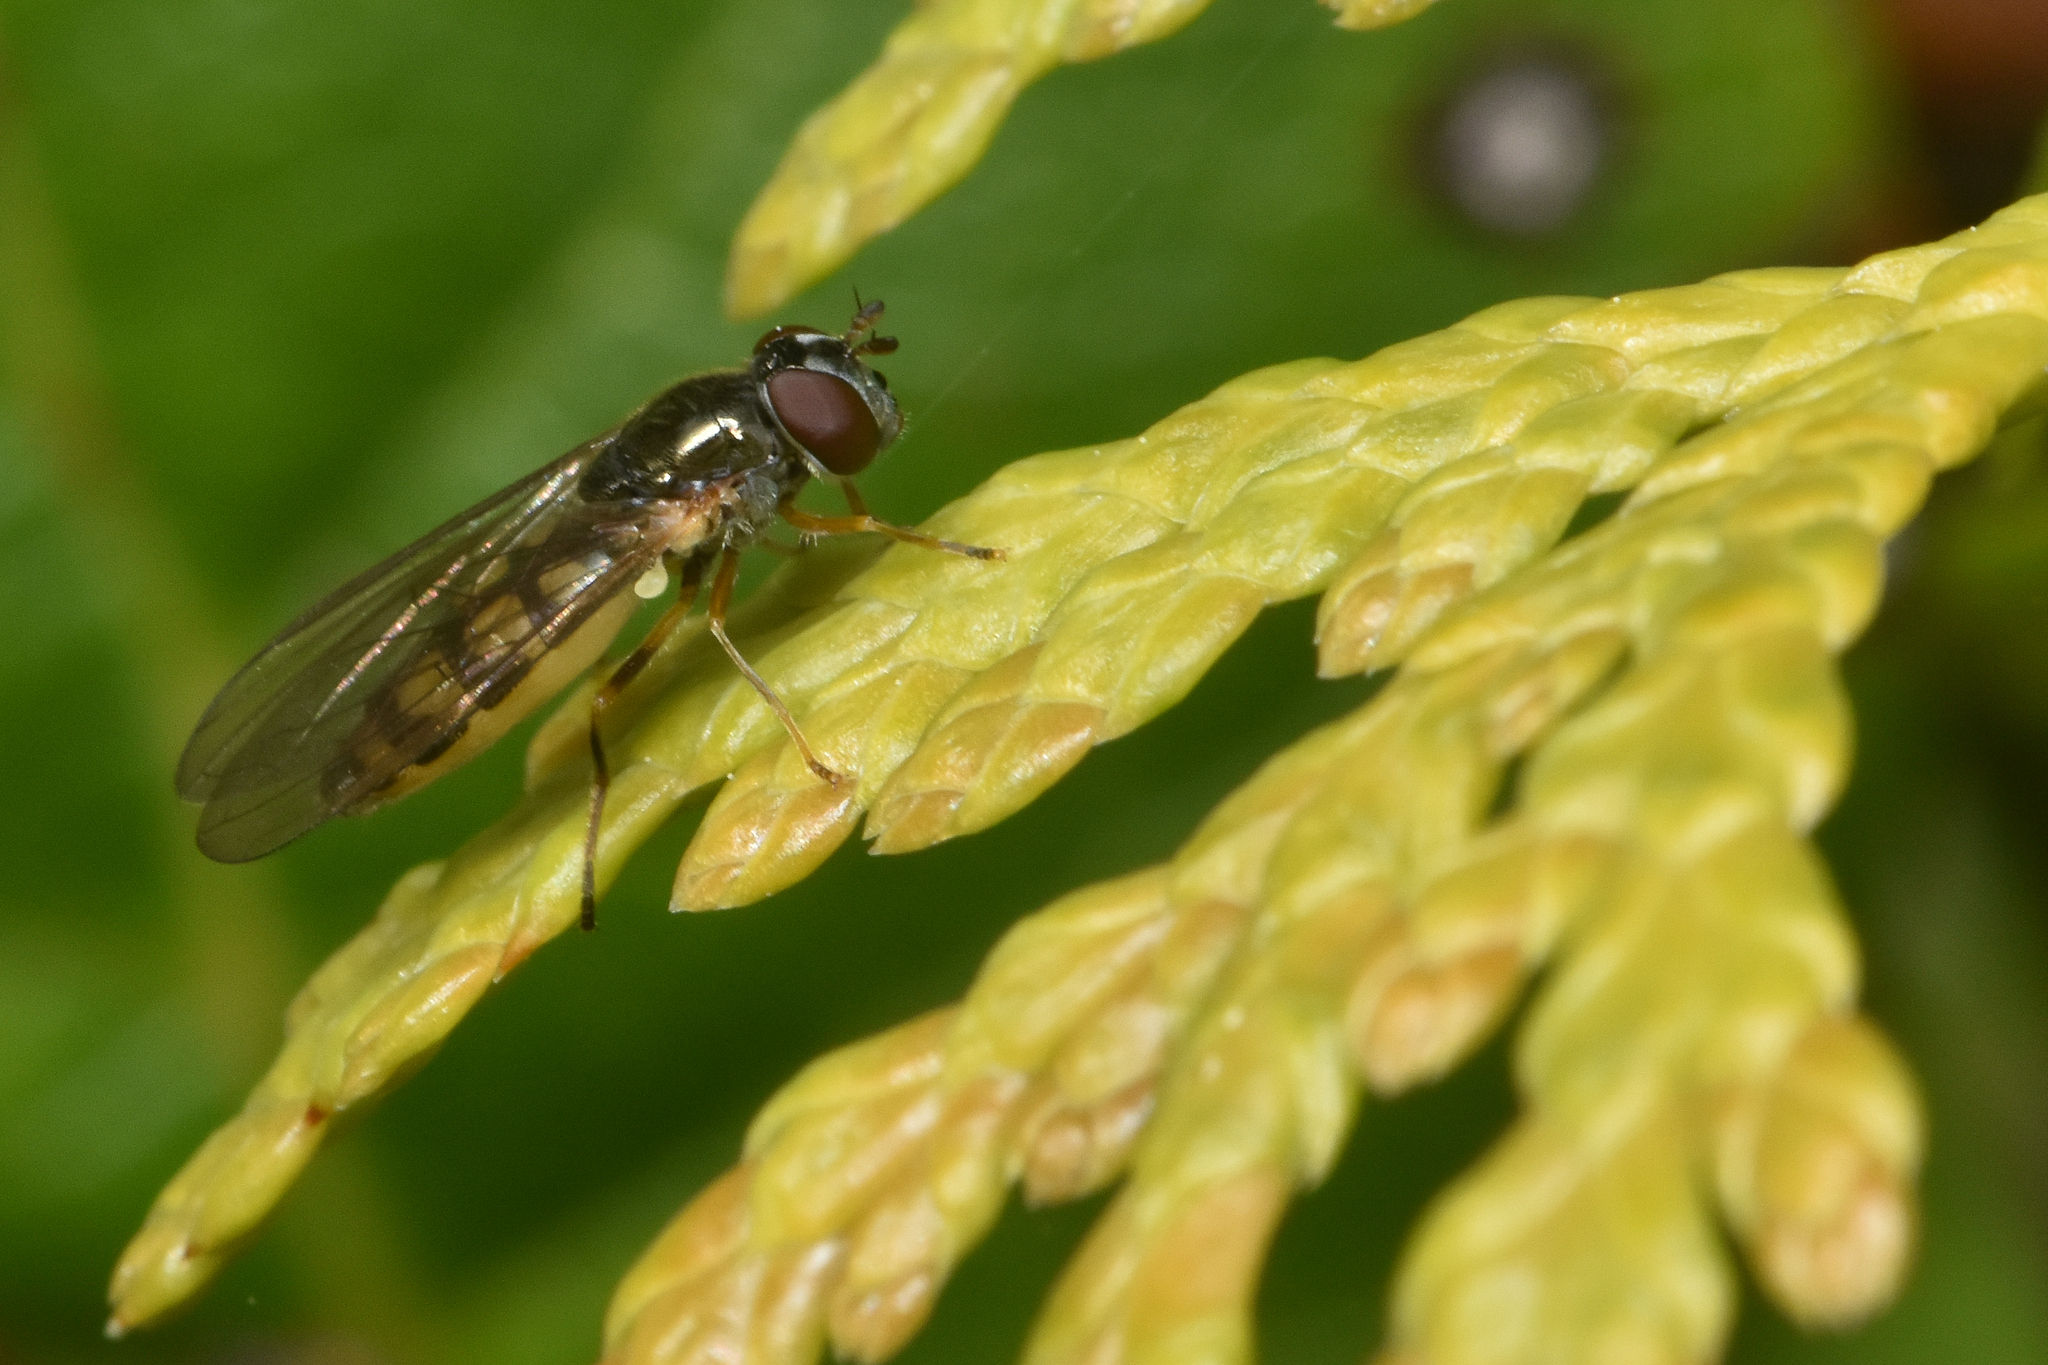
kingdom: Animalia
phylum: Arthropoda
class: Insecta
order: Diptera
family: Syrphidae
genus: Melanostoma
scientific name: Melanostoma mellina
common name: Hover fly
